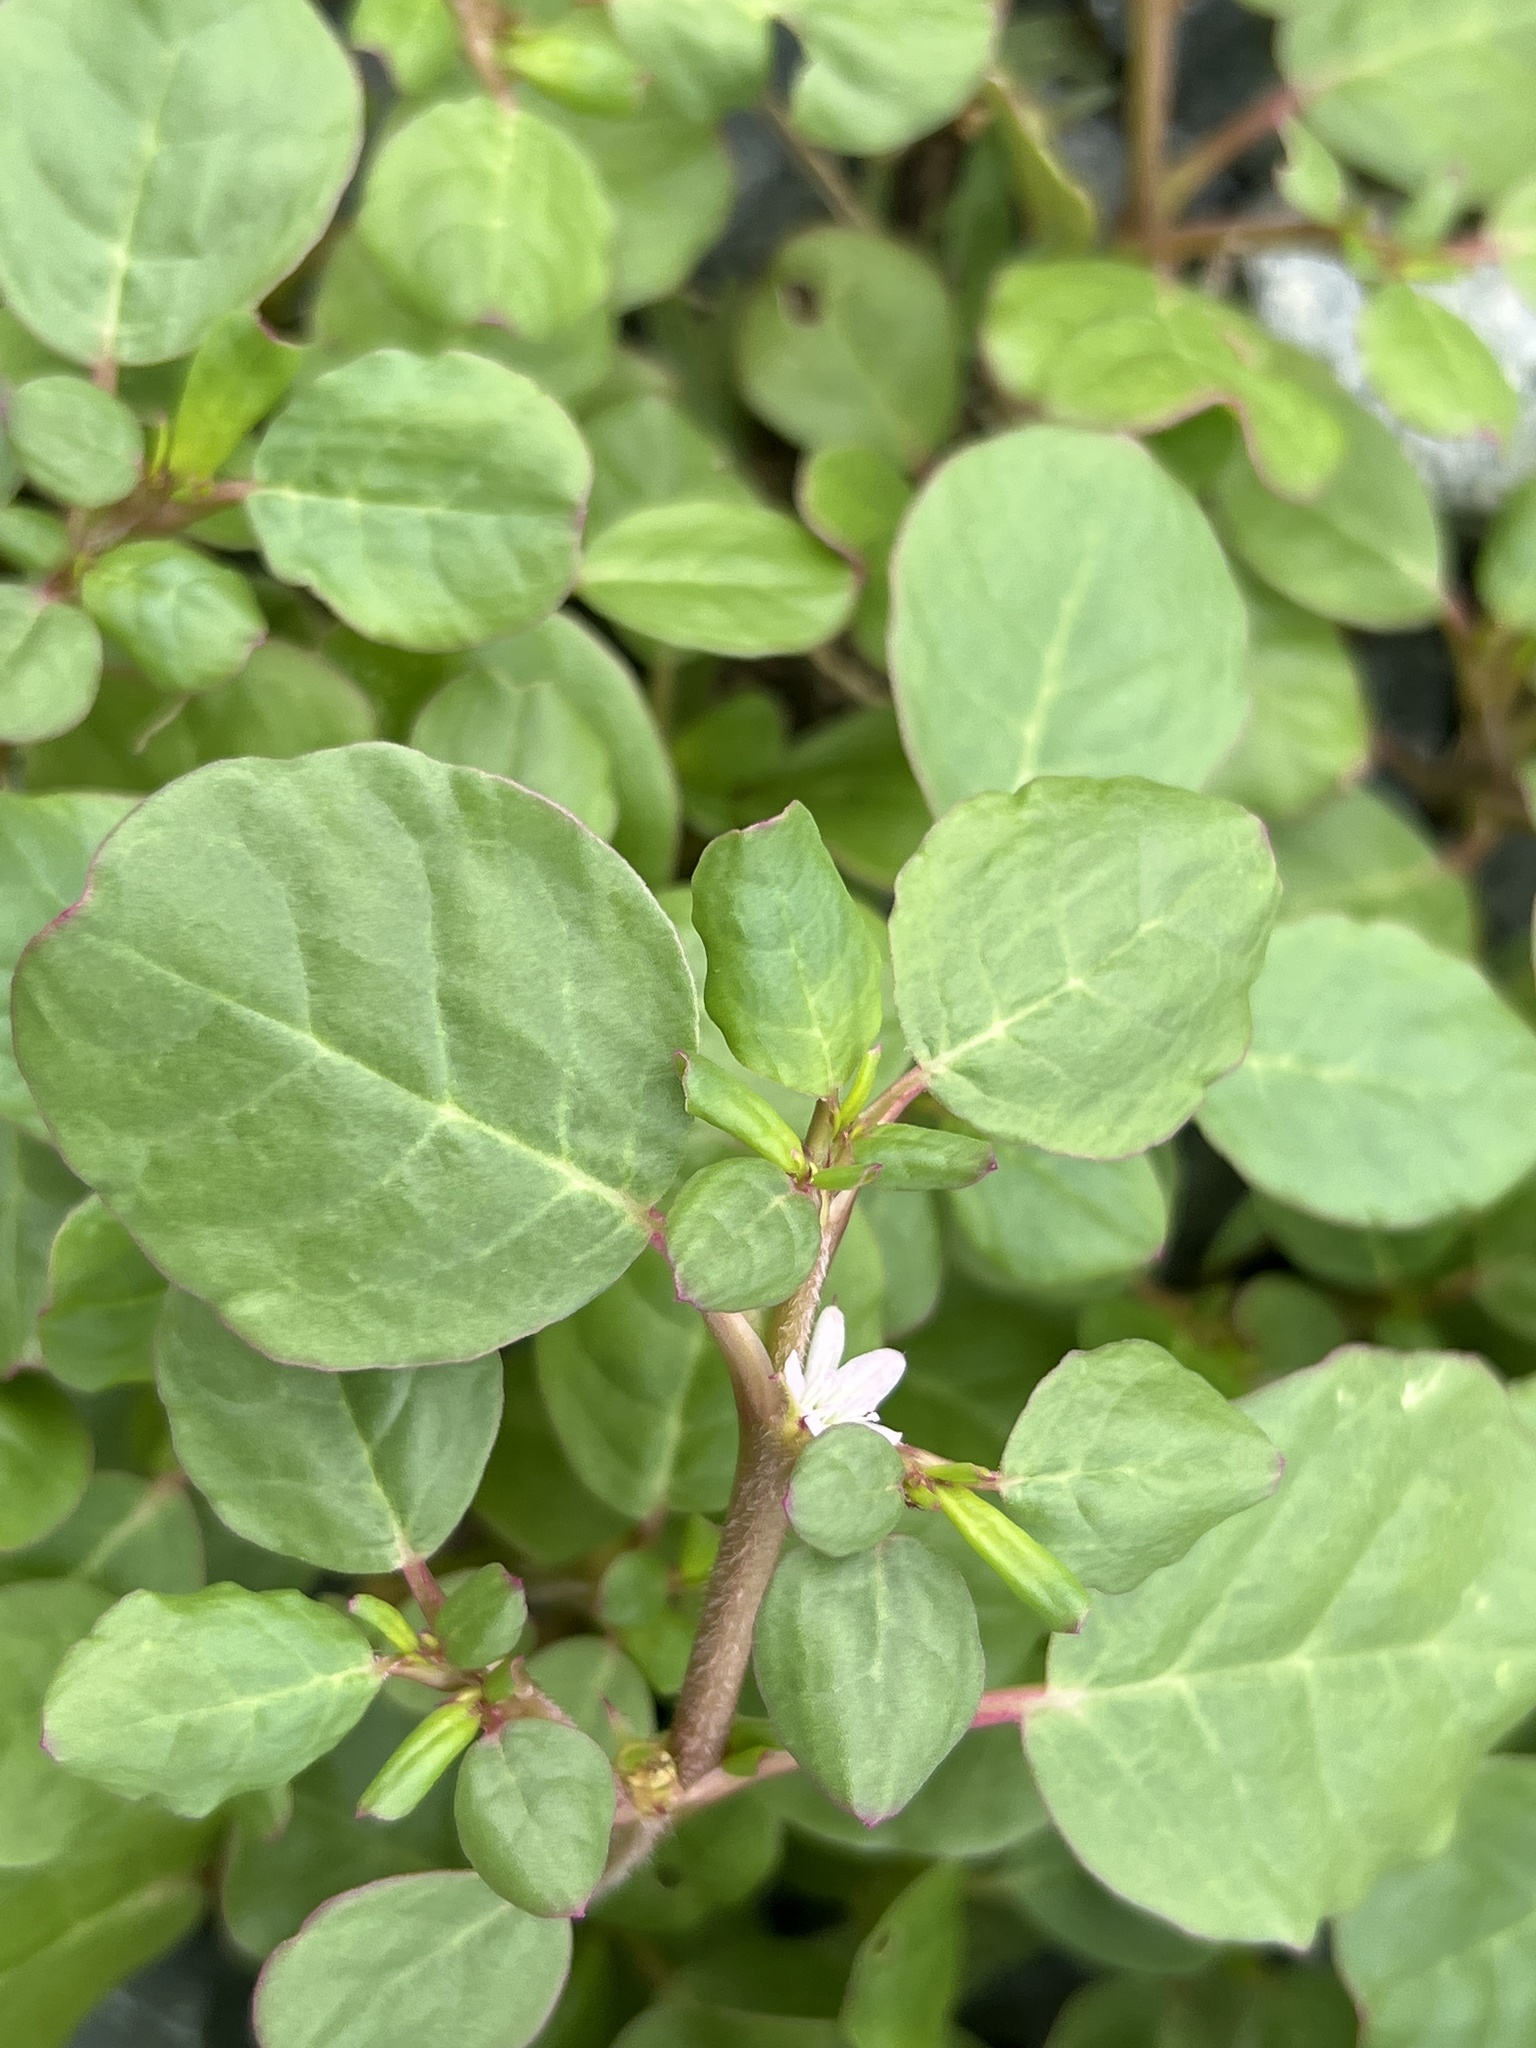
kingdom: Plantae
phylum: Tracheophyta
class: Magnoliopsida
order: Caryophyllales
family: Aizoaceae
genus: Trianthema
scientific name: Trianthema portulacastrum
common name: Desert horsepurslane
